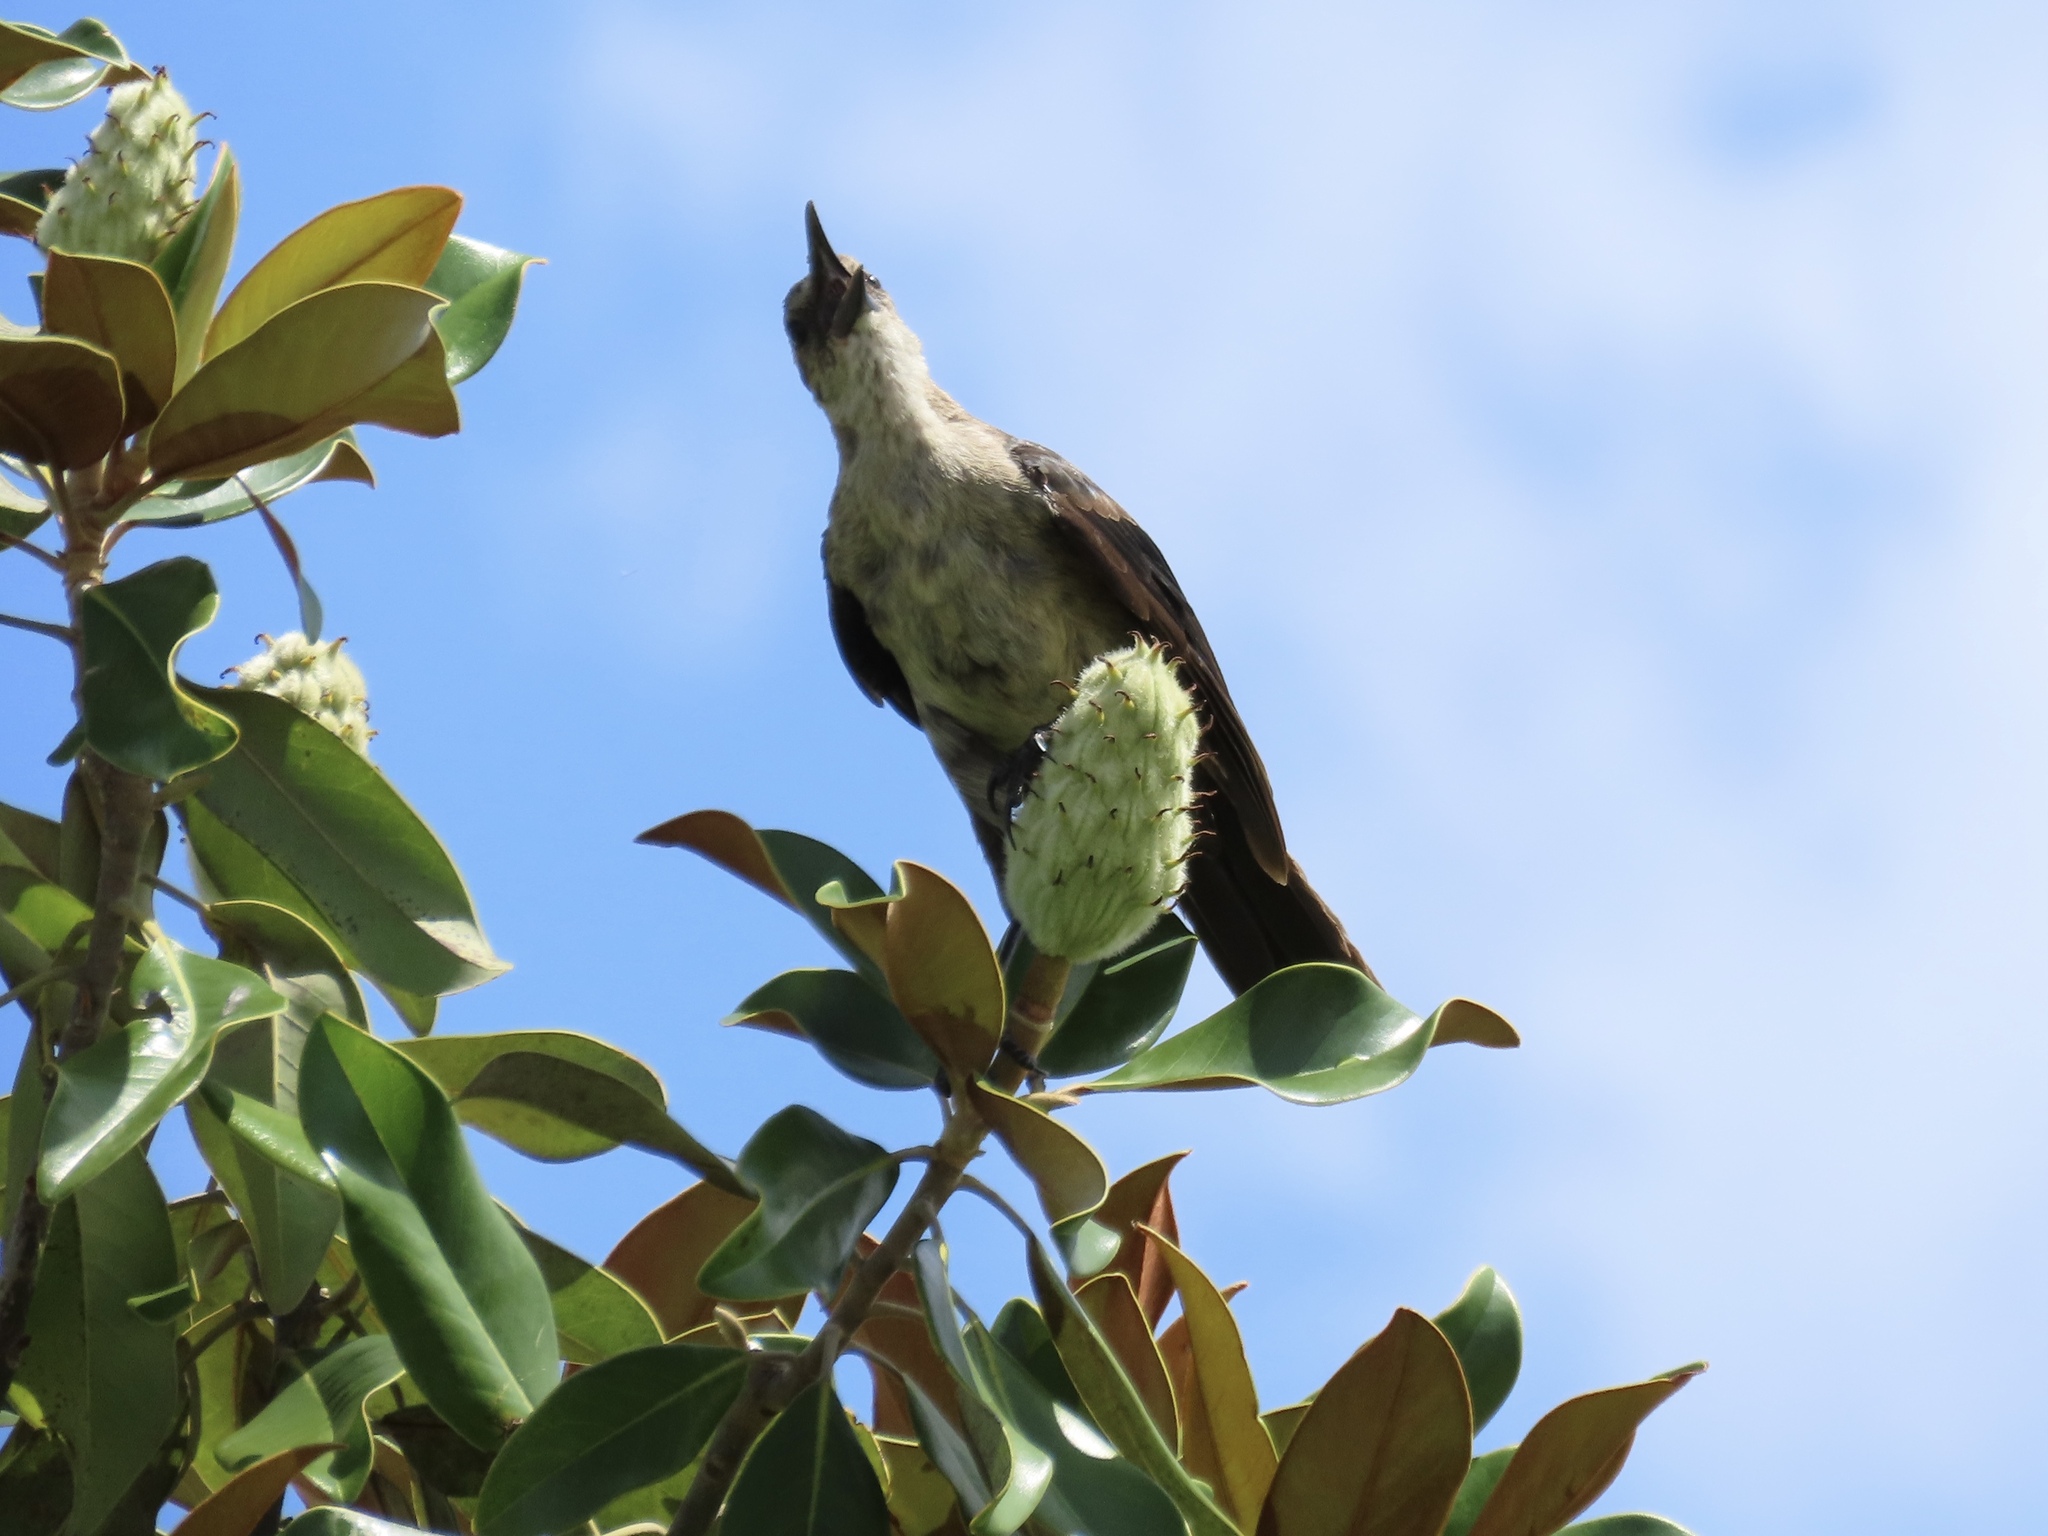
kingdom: Animalia
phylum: Chordata
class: Aves
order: Passeriformes
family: Icteridae
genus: Quiscalus
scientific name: Quiscalus major
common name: Boat-tailed grackle
